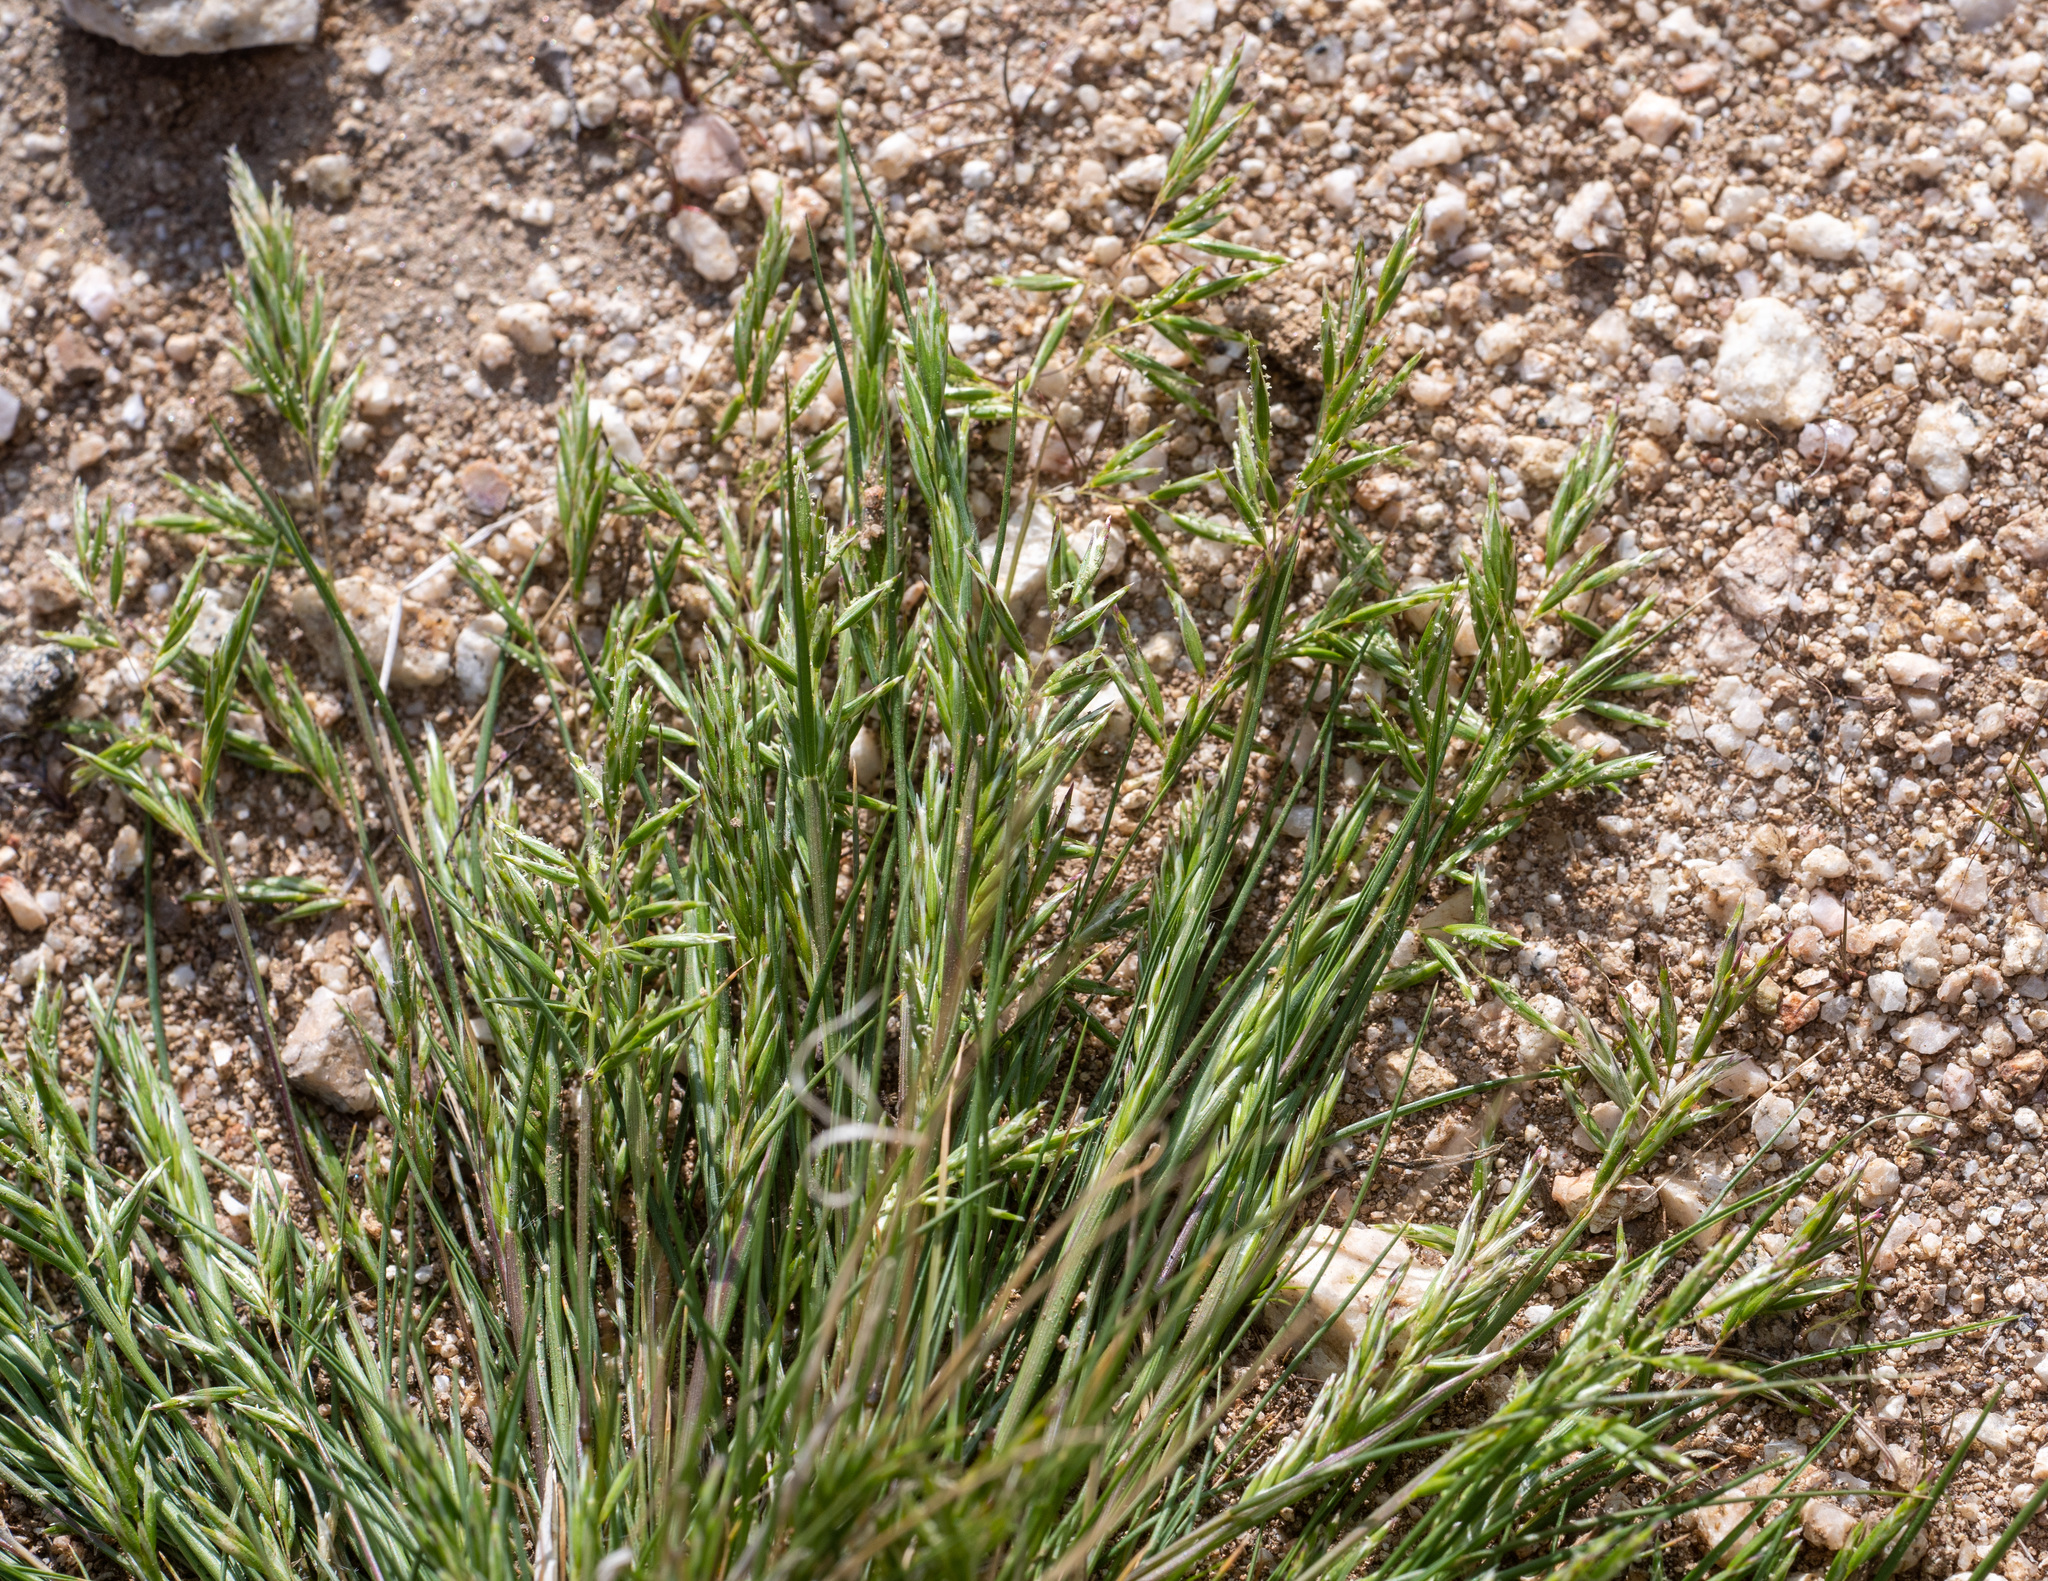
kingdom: Plantae
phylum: Tracheophyta
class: Liliopsida
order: Poales
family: Poaceae
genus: Schismus
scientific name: Schismus barbatus
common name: Kelch-grass
